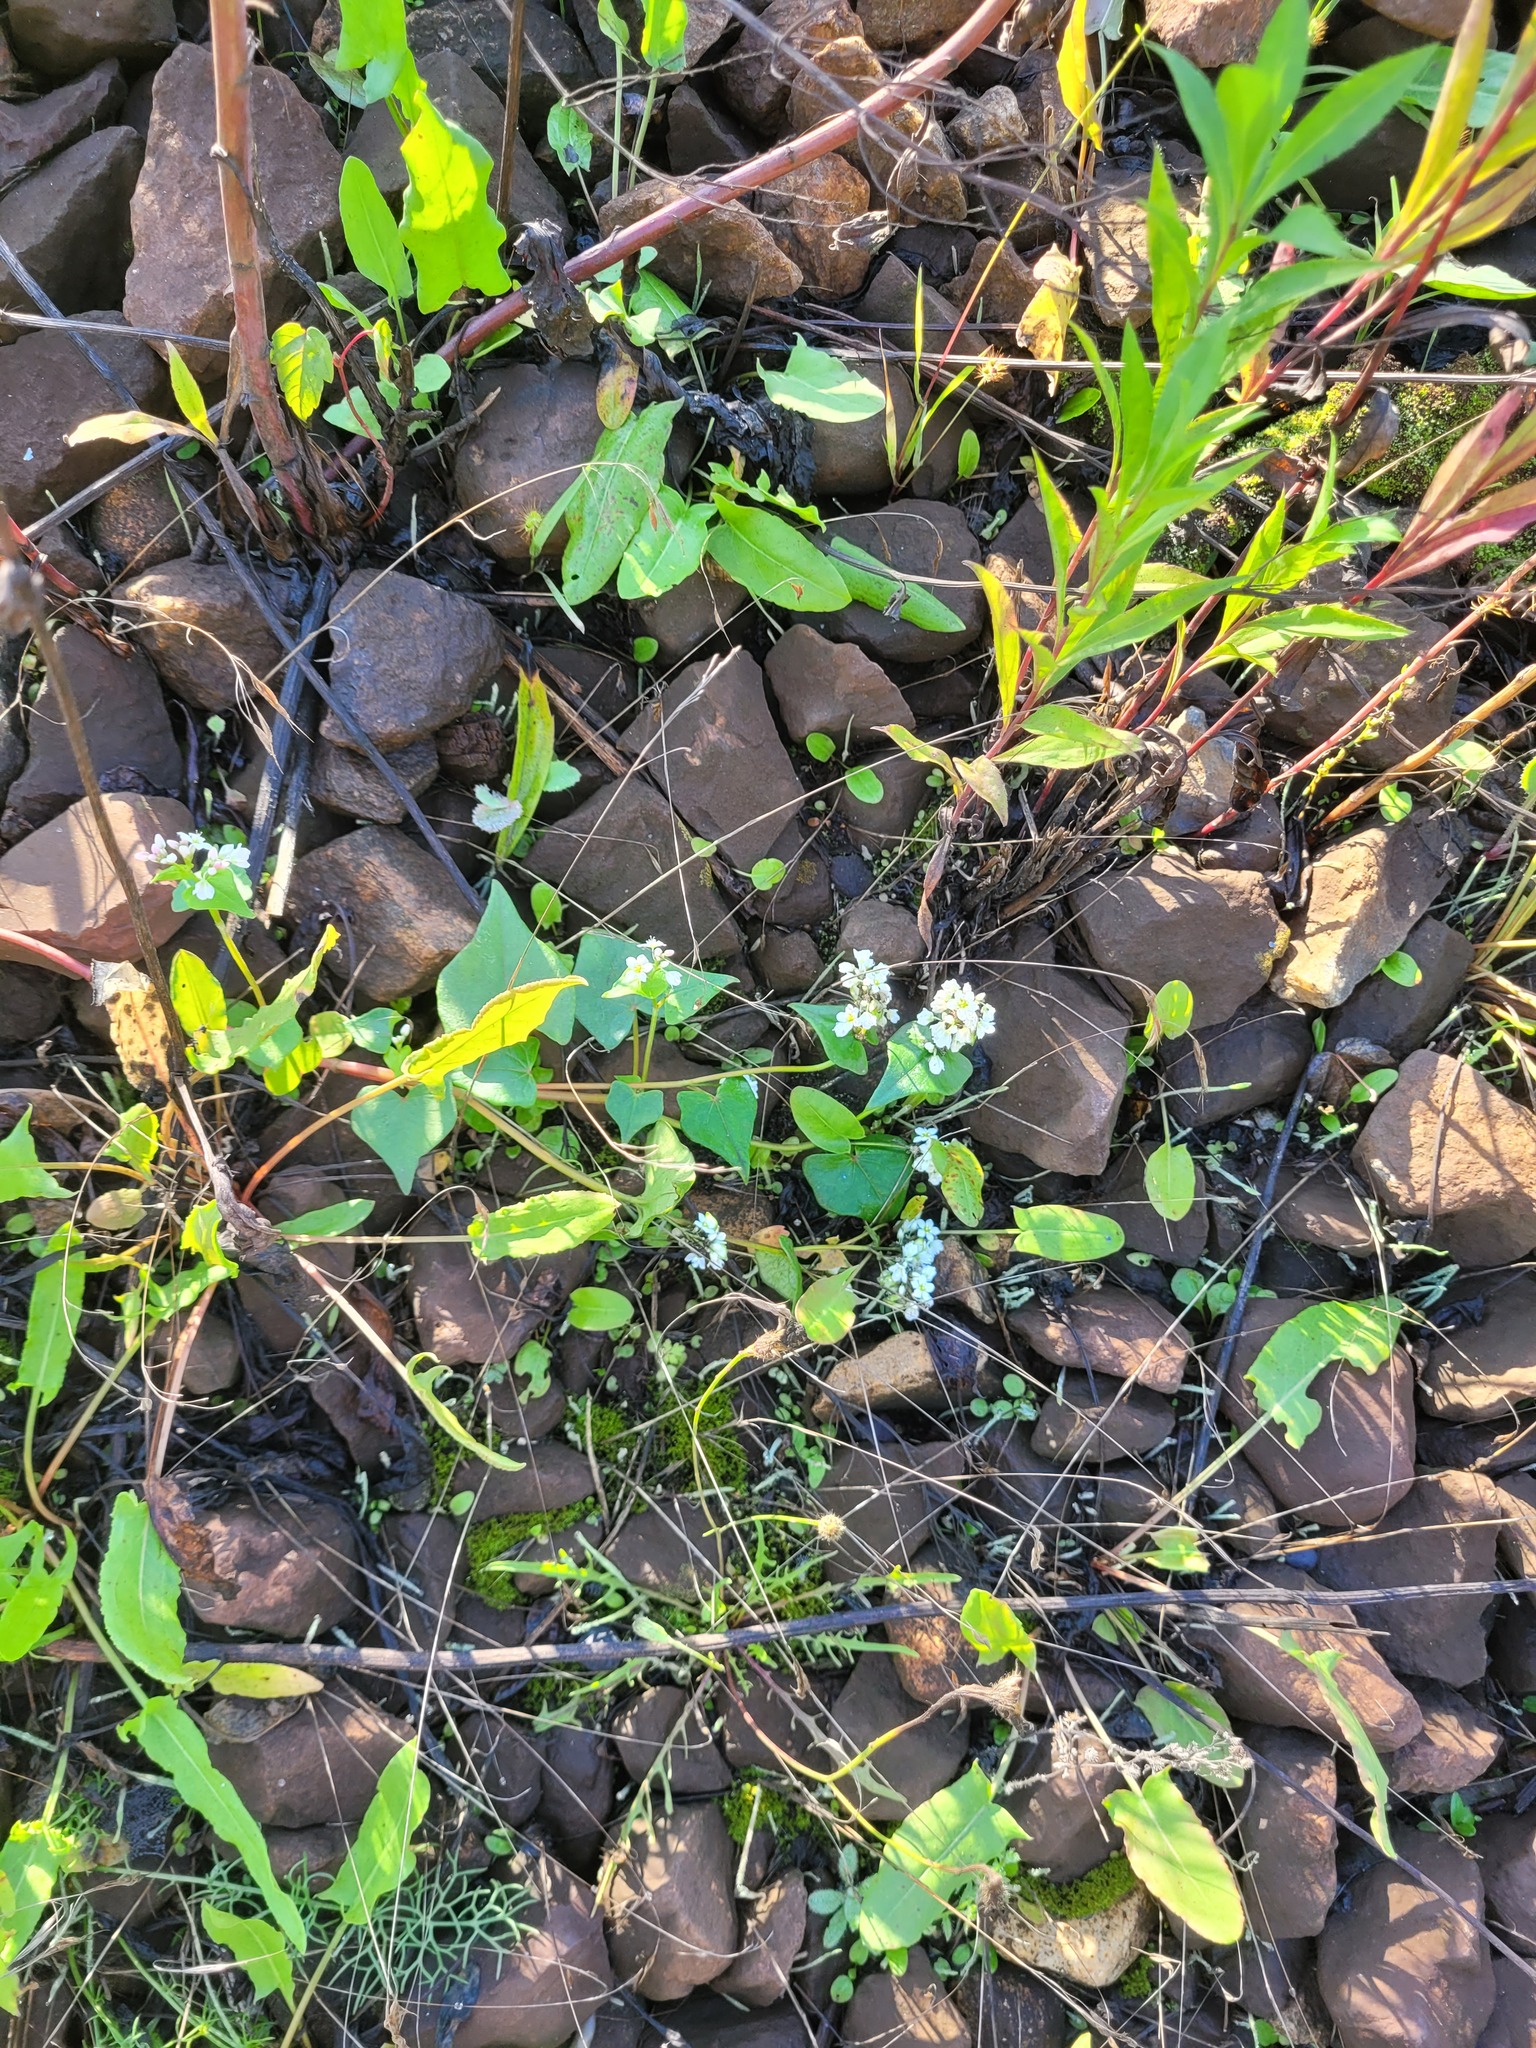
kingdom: Plantae
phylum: Tracheophyta
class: Magnoliopsida
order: Caryophyllales
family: Polygonaceae
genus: Fagopyrum
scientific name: Fagopyrum esculentum
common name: Buckwheat
